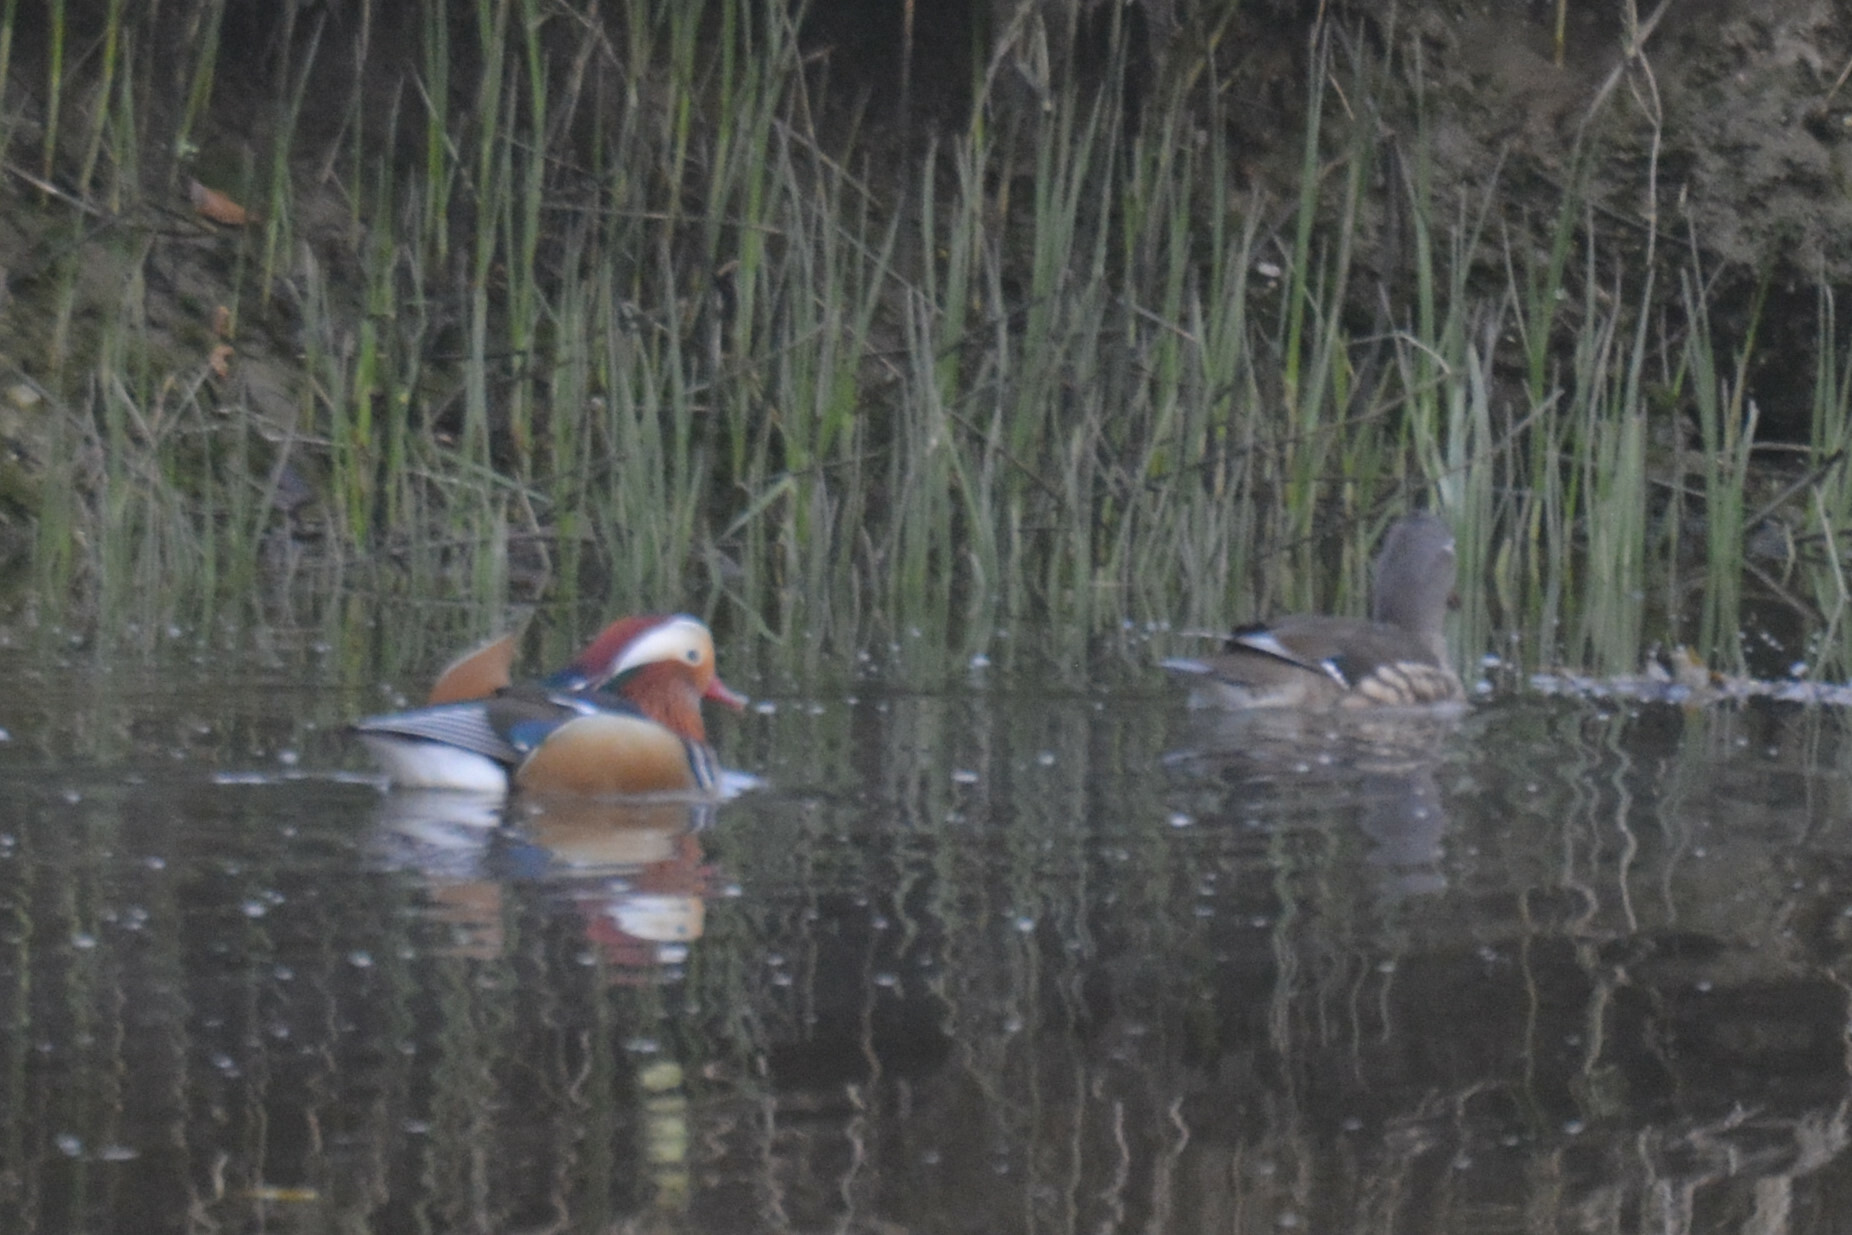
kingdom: Animalia
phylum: Chordata
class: Aves
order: Anseriformes
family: Anatidae
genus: Aix
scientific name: Aix galericulata
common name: Mandarin duck
